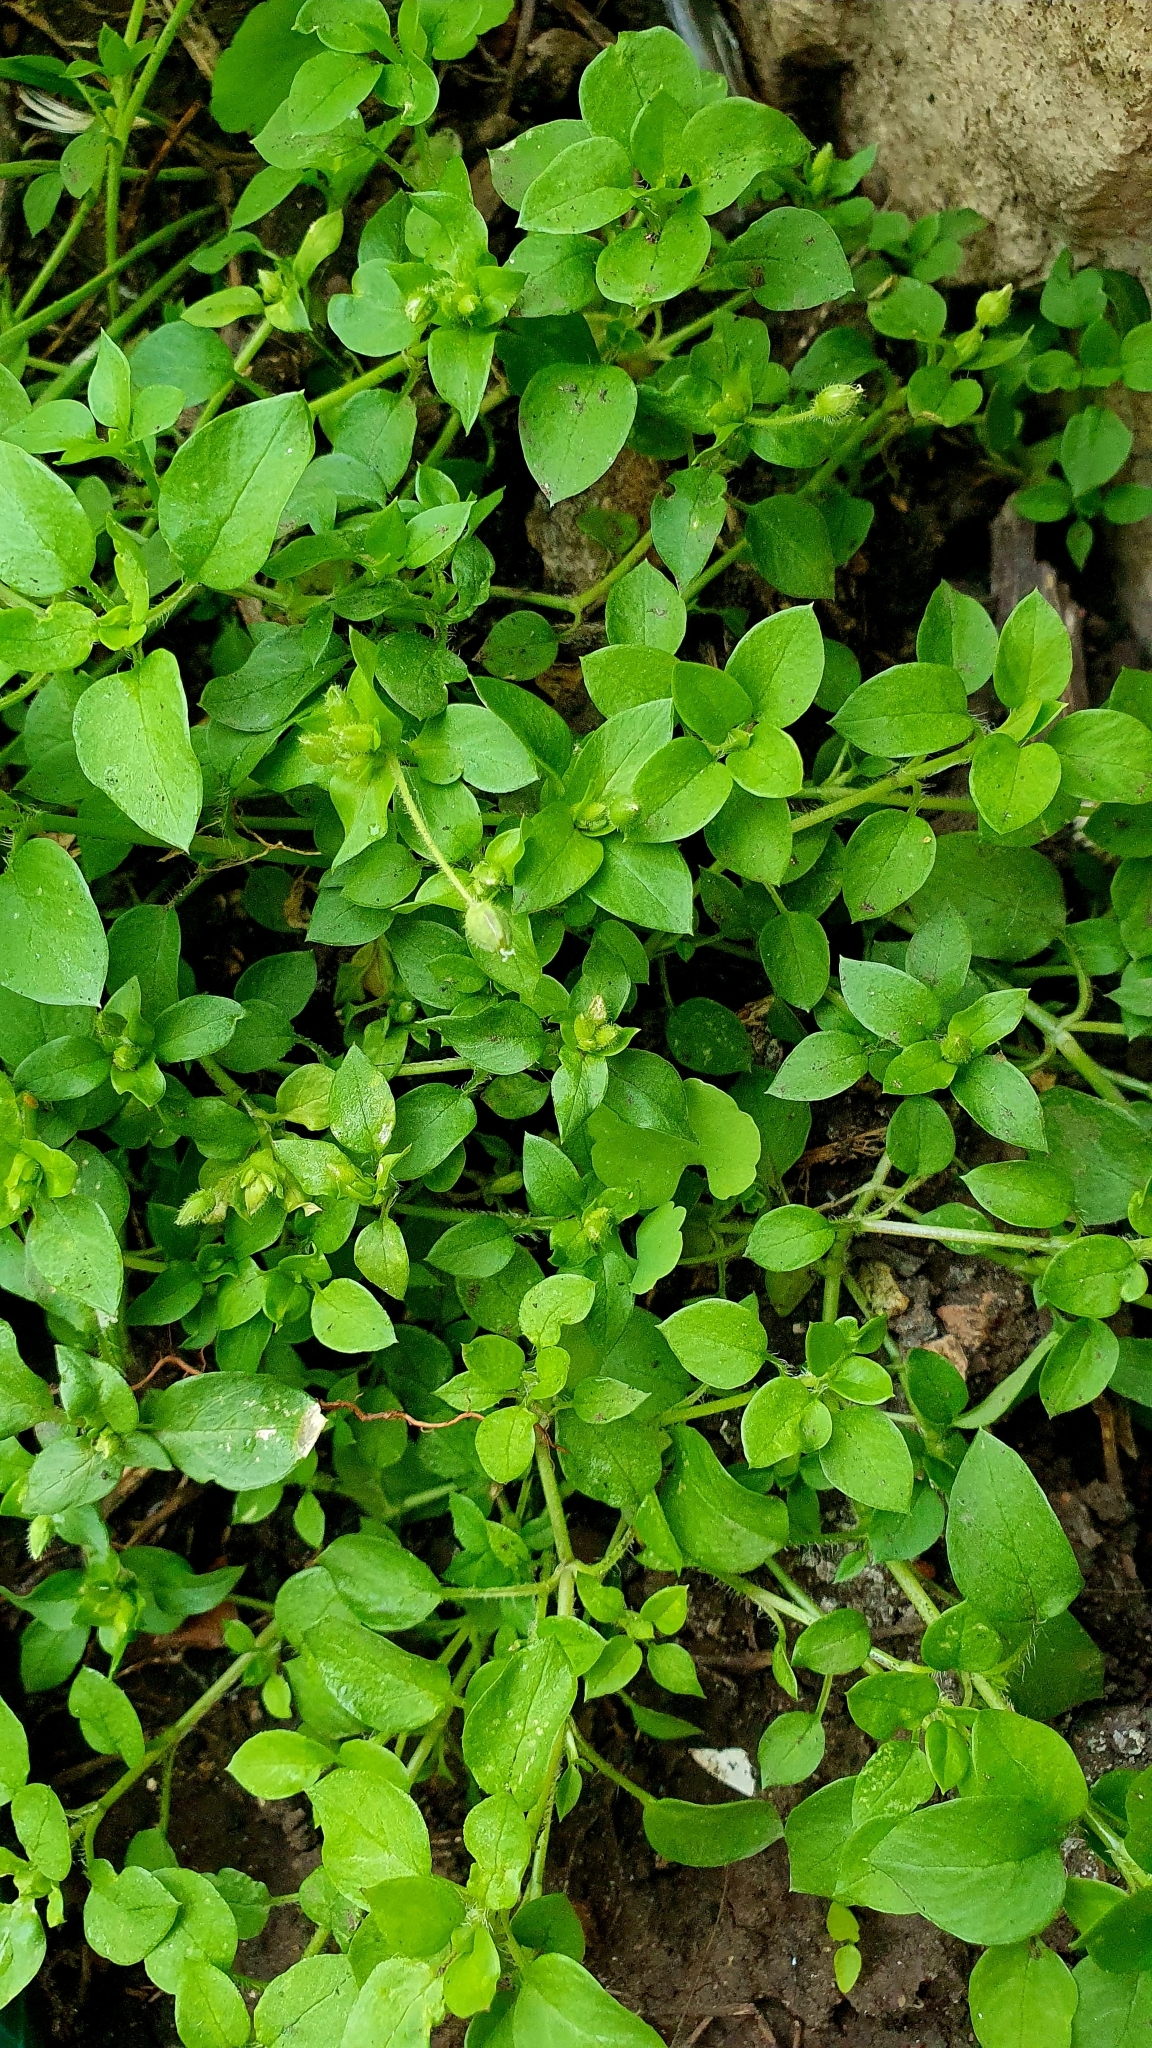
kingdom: Plantae
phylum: Tracheophyta
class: Magnoliopsida
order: Caryophyllales
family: Caryophyllaceae
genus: Stellaria
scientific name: Stellaria media
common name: Common chickweed
